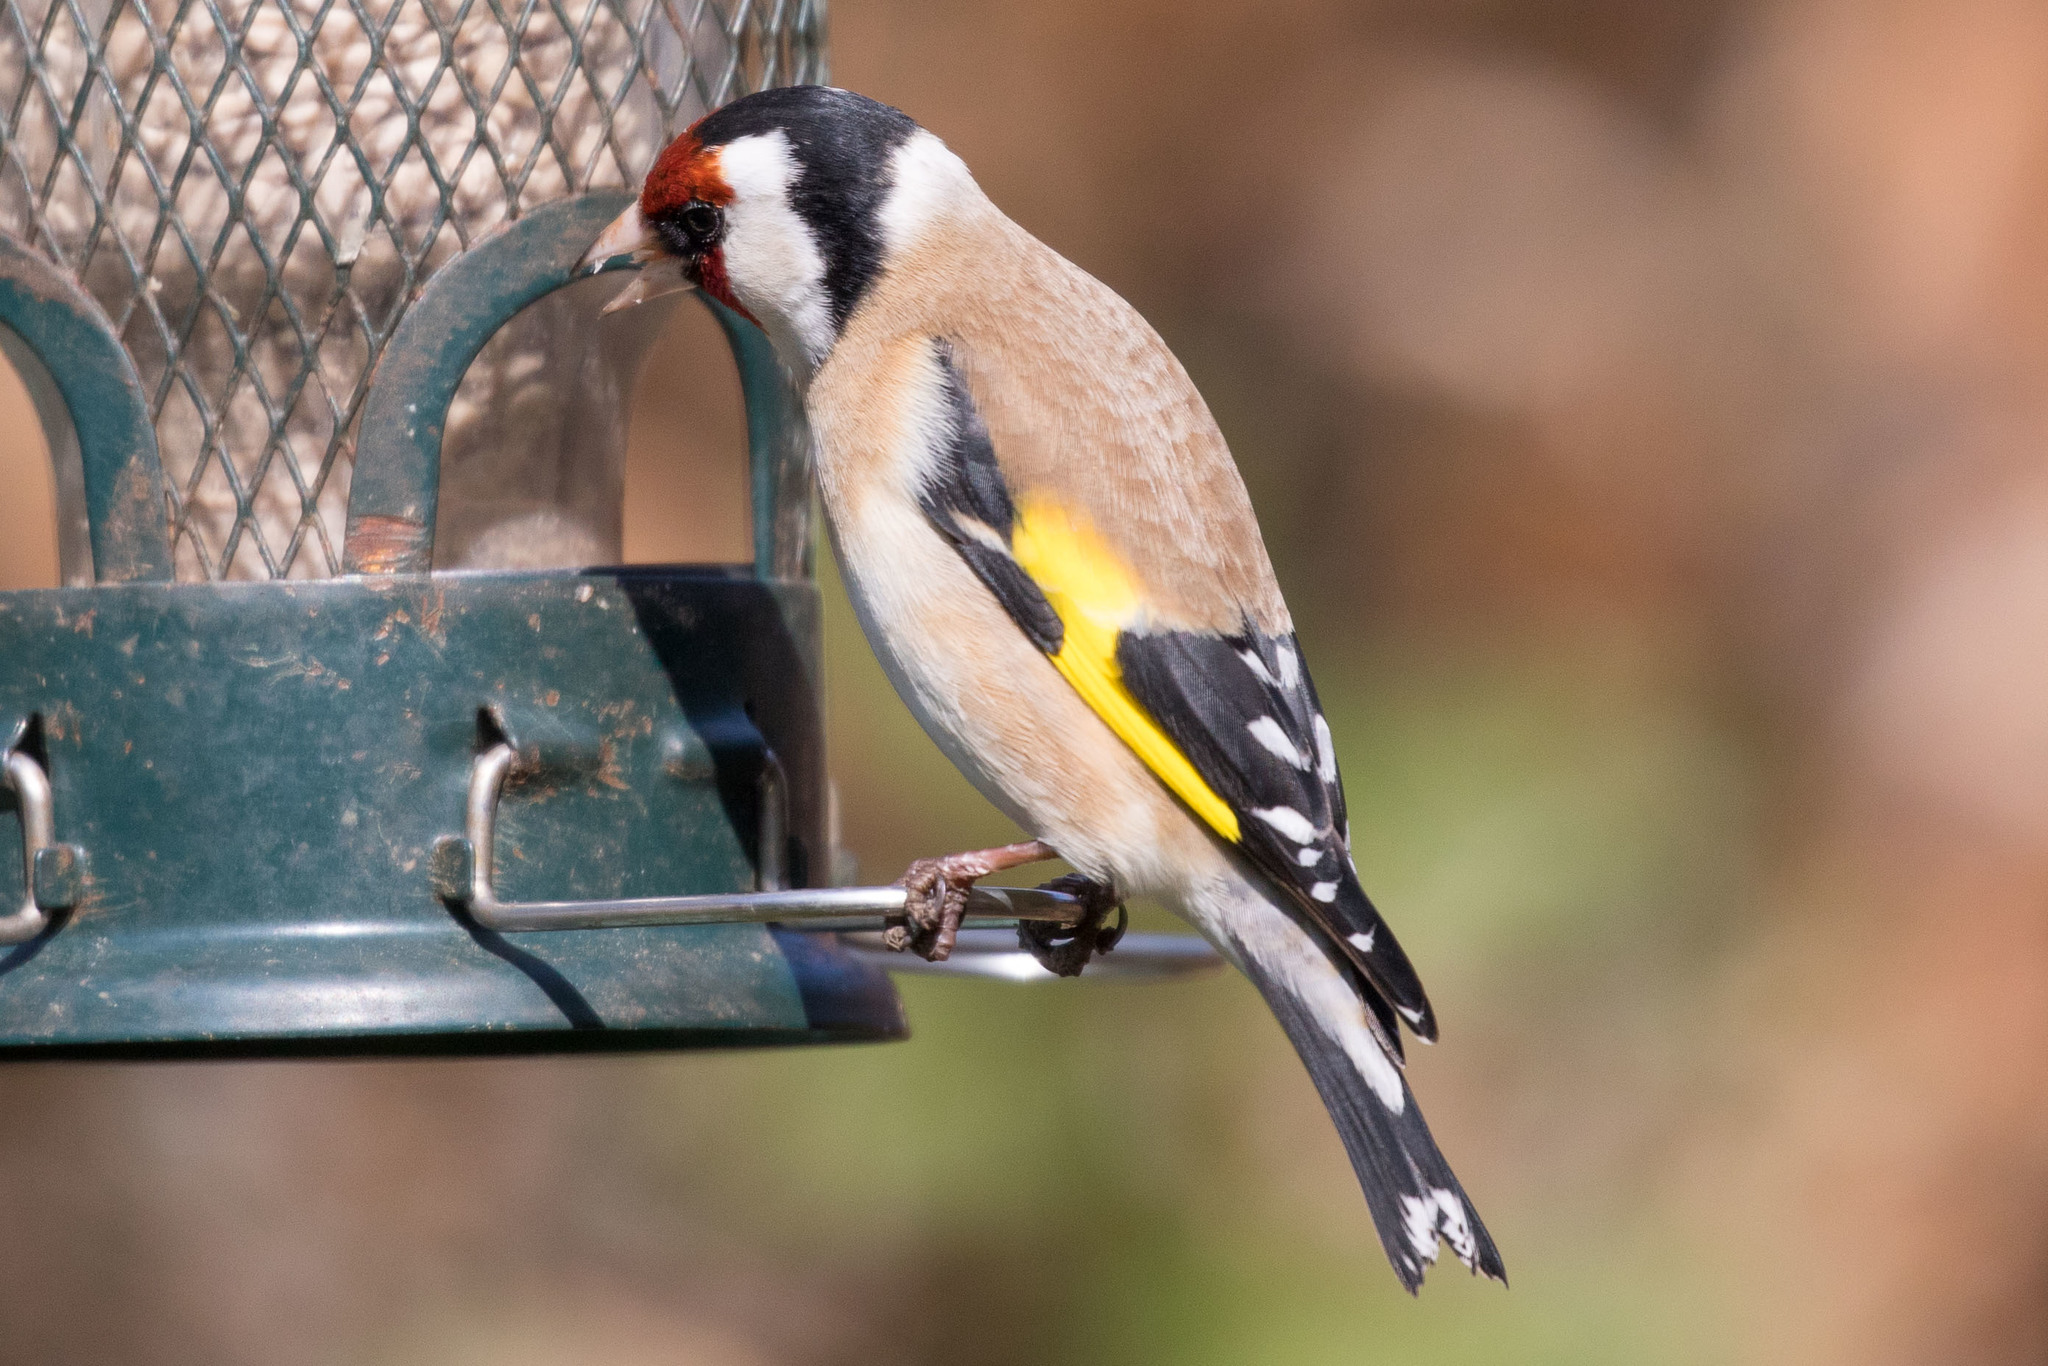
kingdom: Animalia
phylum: Chordata
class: Aves
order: Passeriformes
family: Fringillidae
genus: Carduelis
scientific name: Carduelis carduelis
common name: European goldfinch
